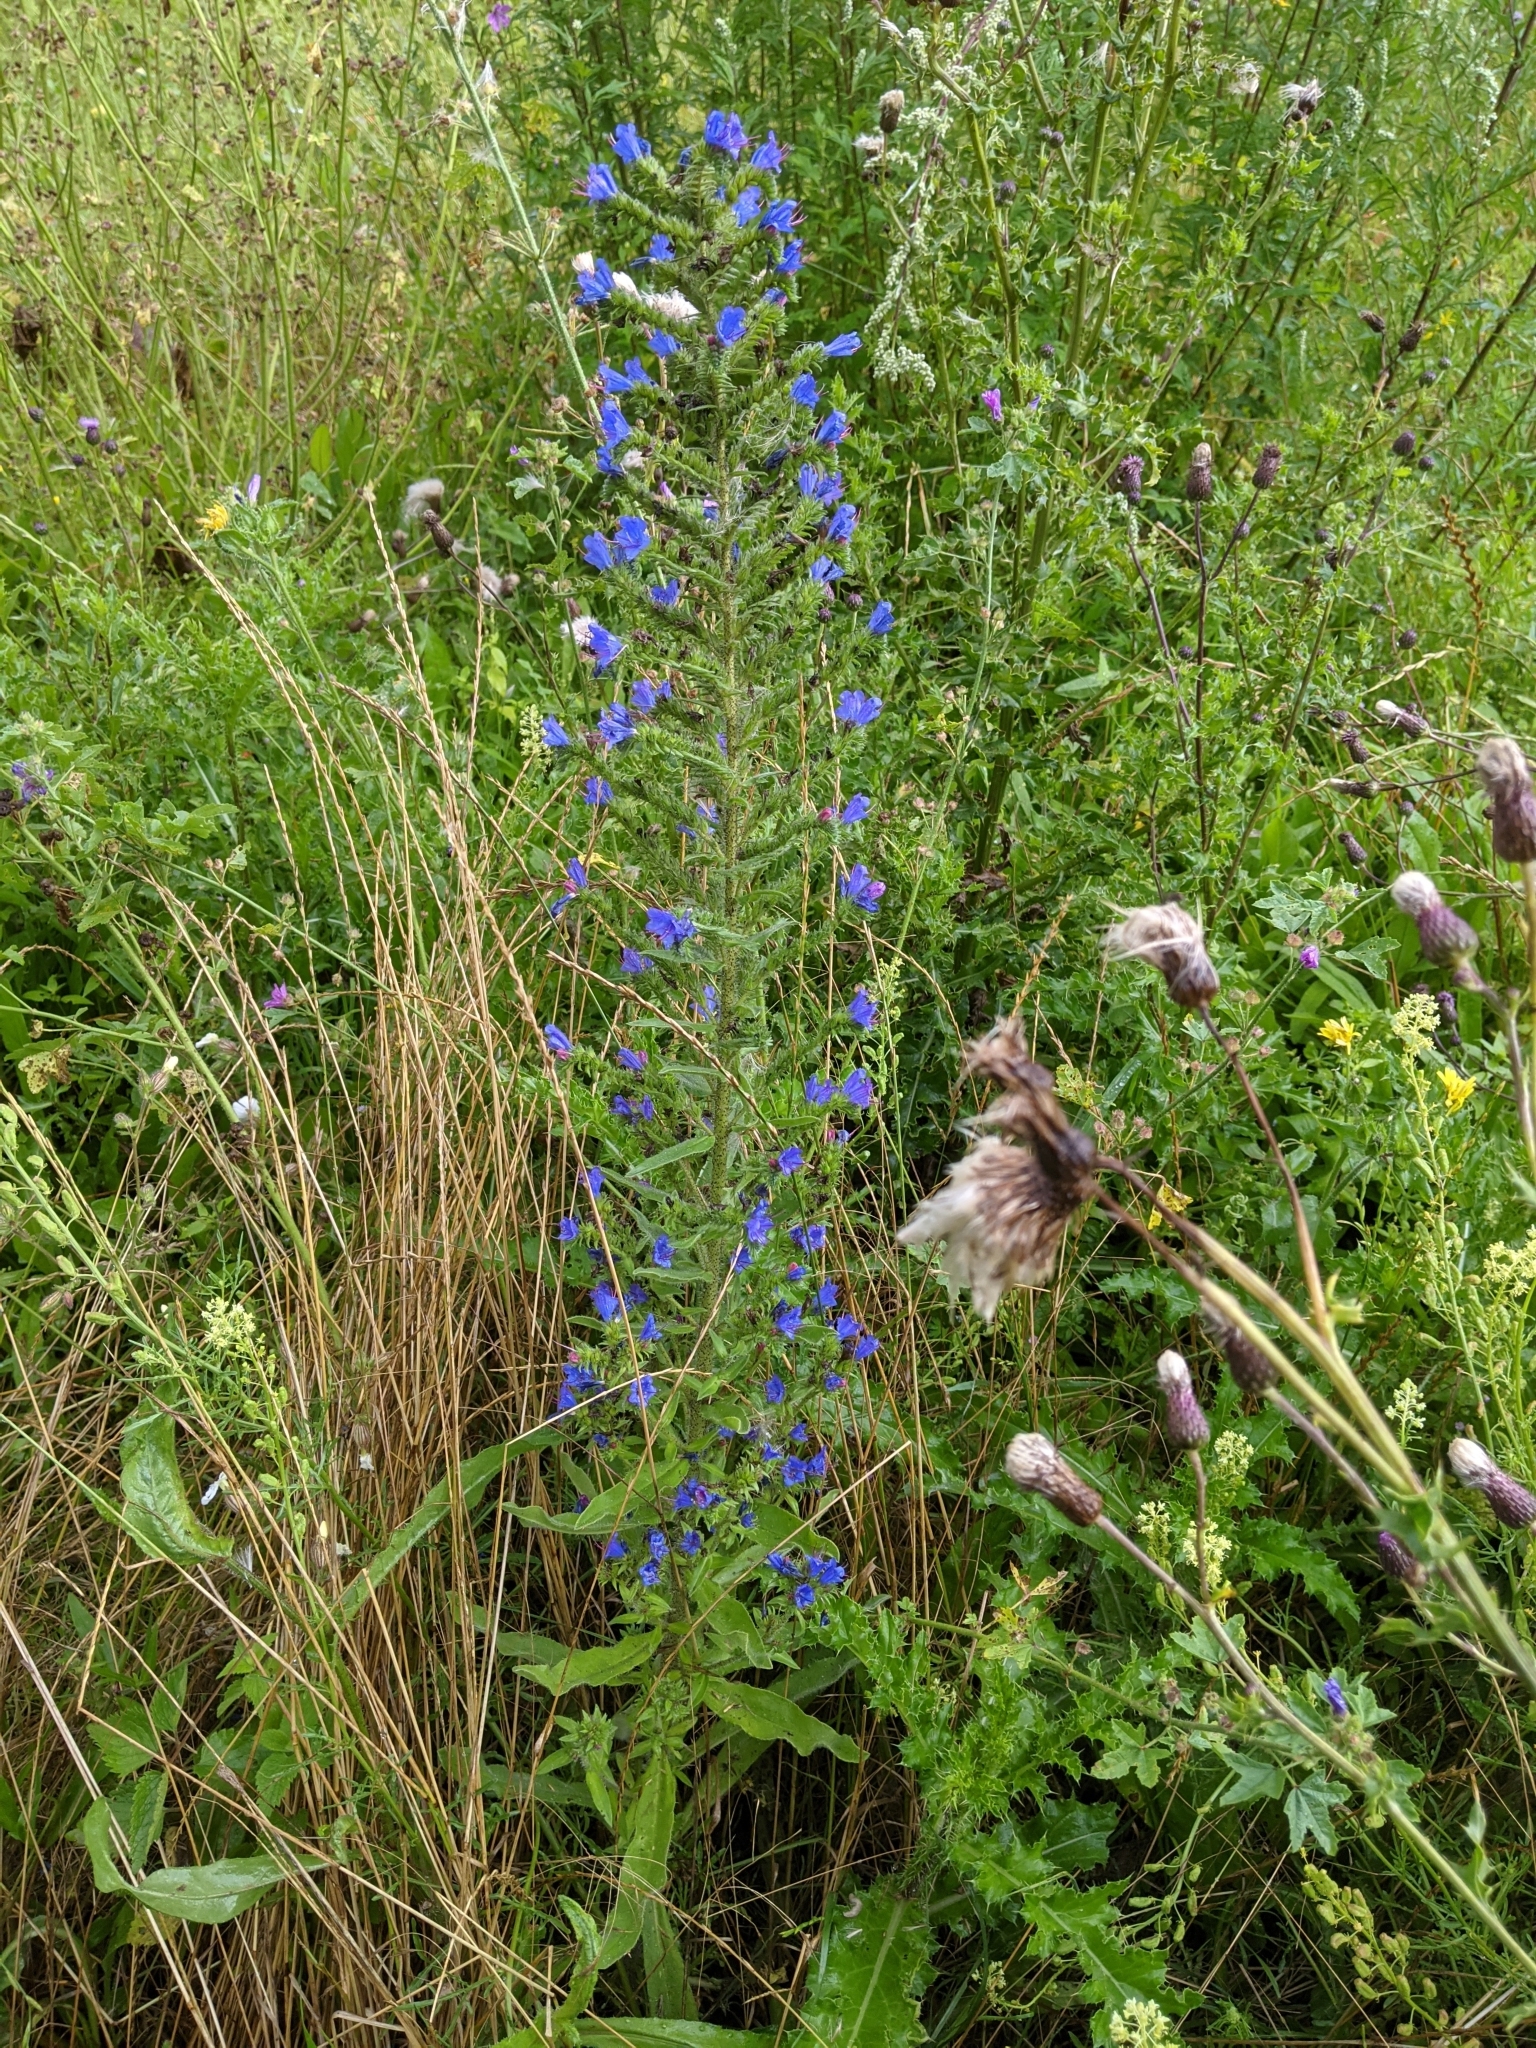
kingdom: Plantae
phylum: Tracheophyta
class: Magnoliopsida
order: Boraginales
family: Boraginaceae
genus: Echium
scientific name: Echium vulgare
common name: Common viper's bugloss
